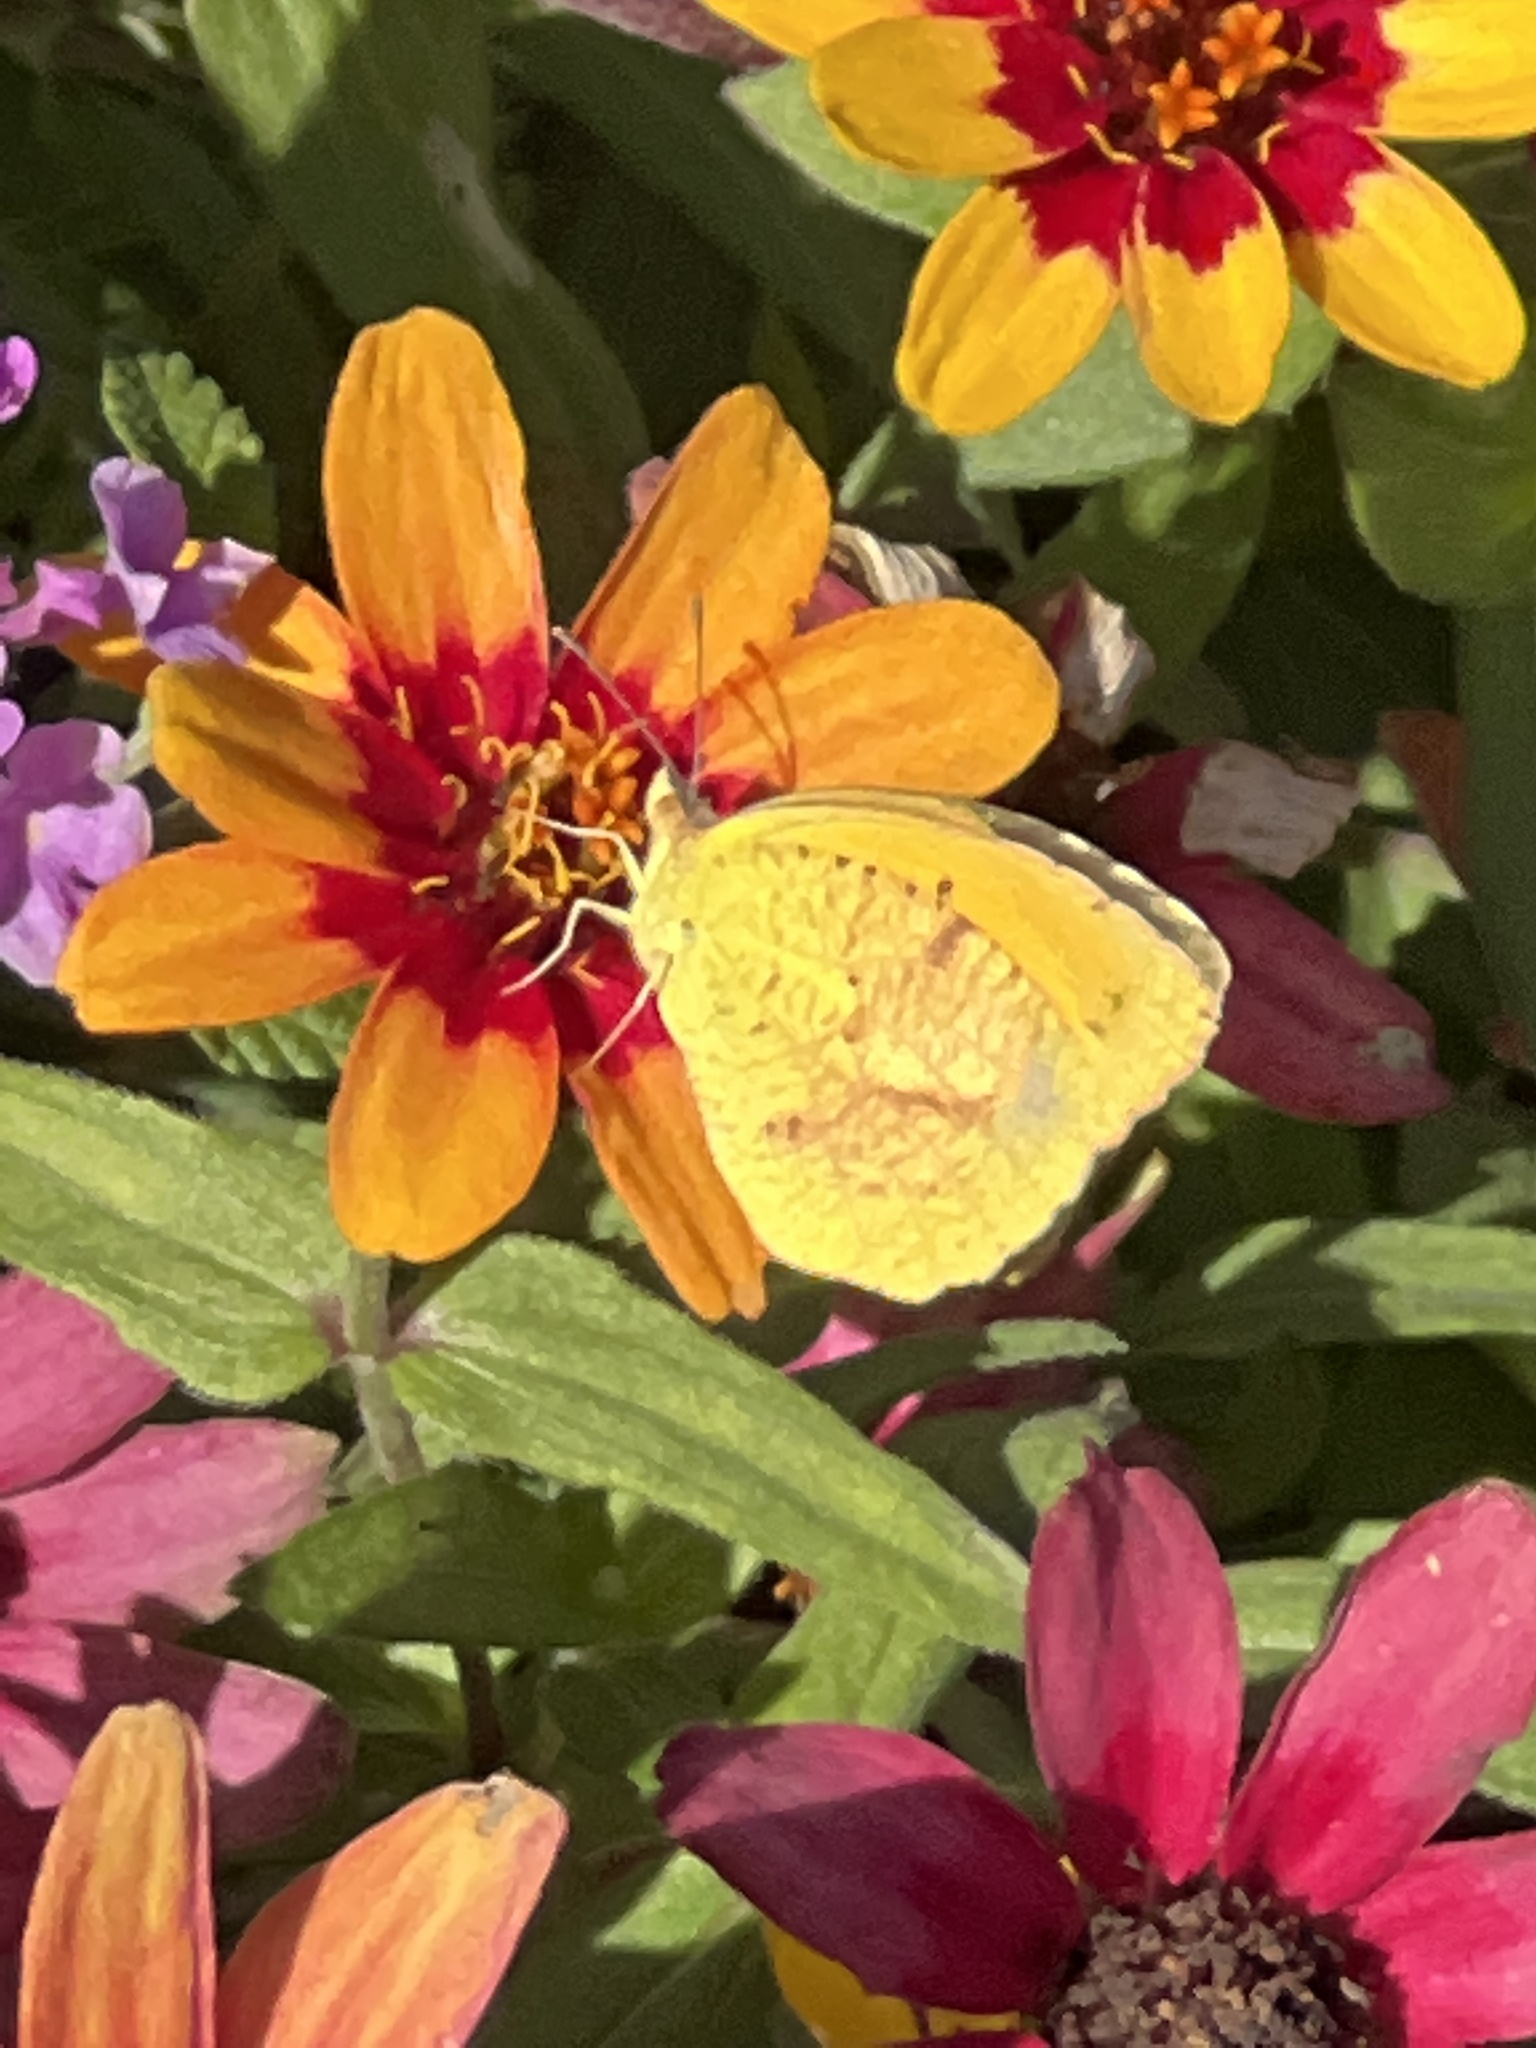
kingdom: Animalia
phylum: Arthropoda
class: Insecta
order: Lepidoptera
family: Pieridae
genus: Abaeis
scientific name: Abaeis nicippe
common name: Sleepy orange
